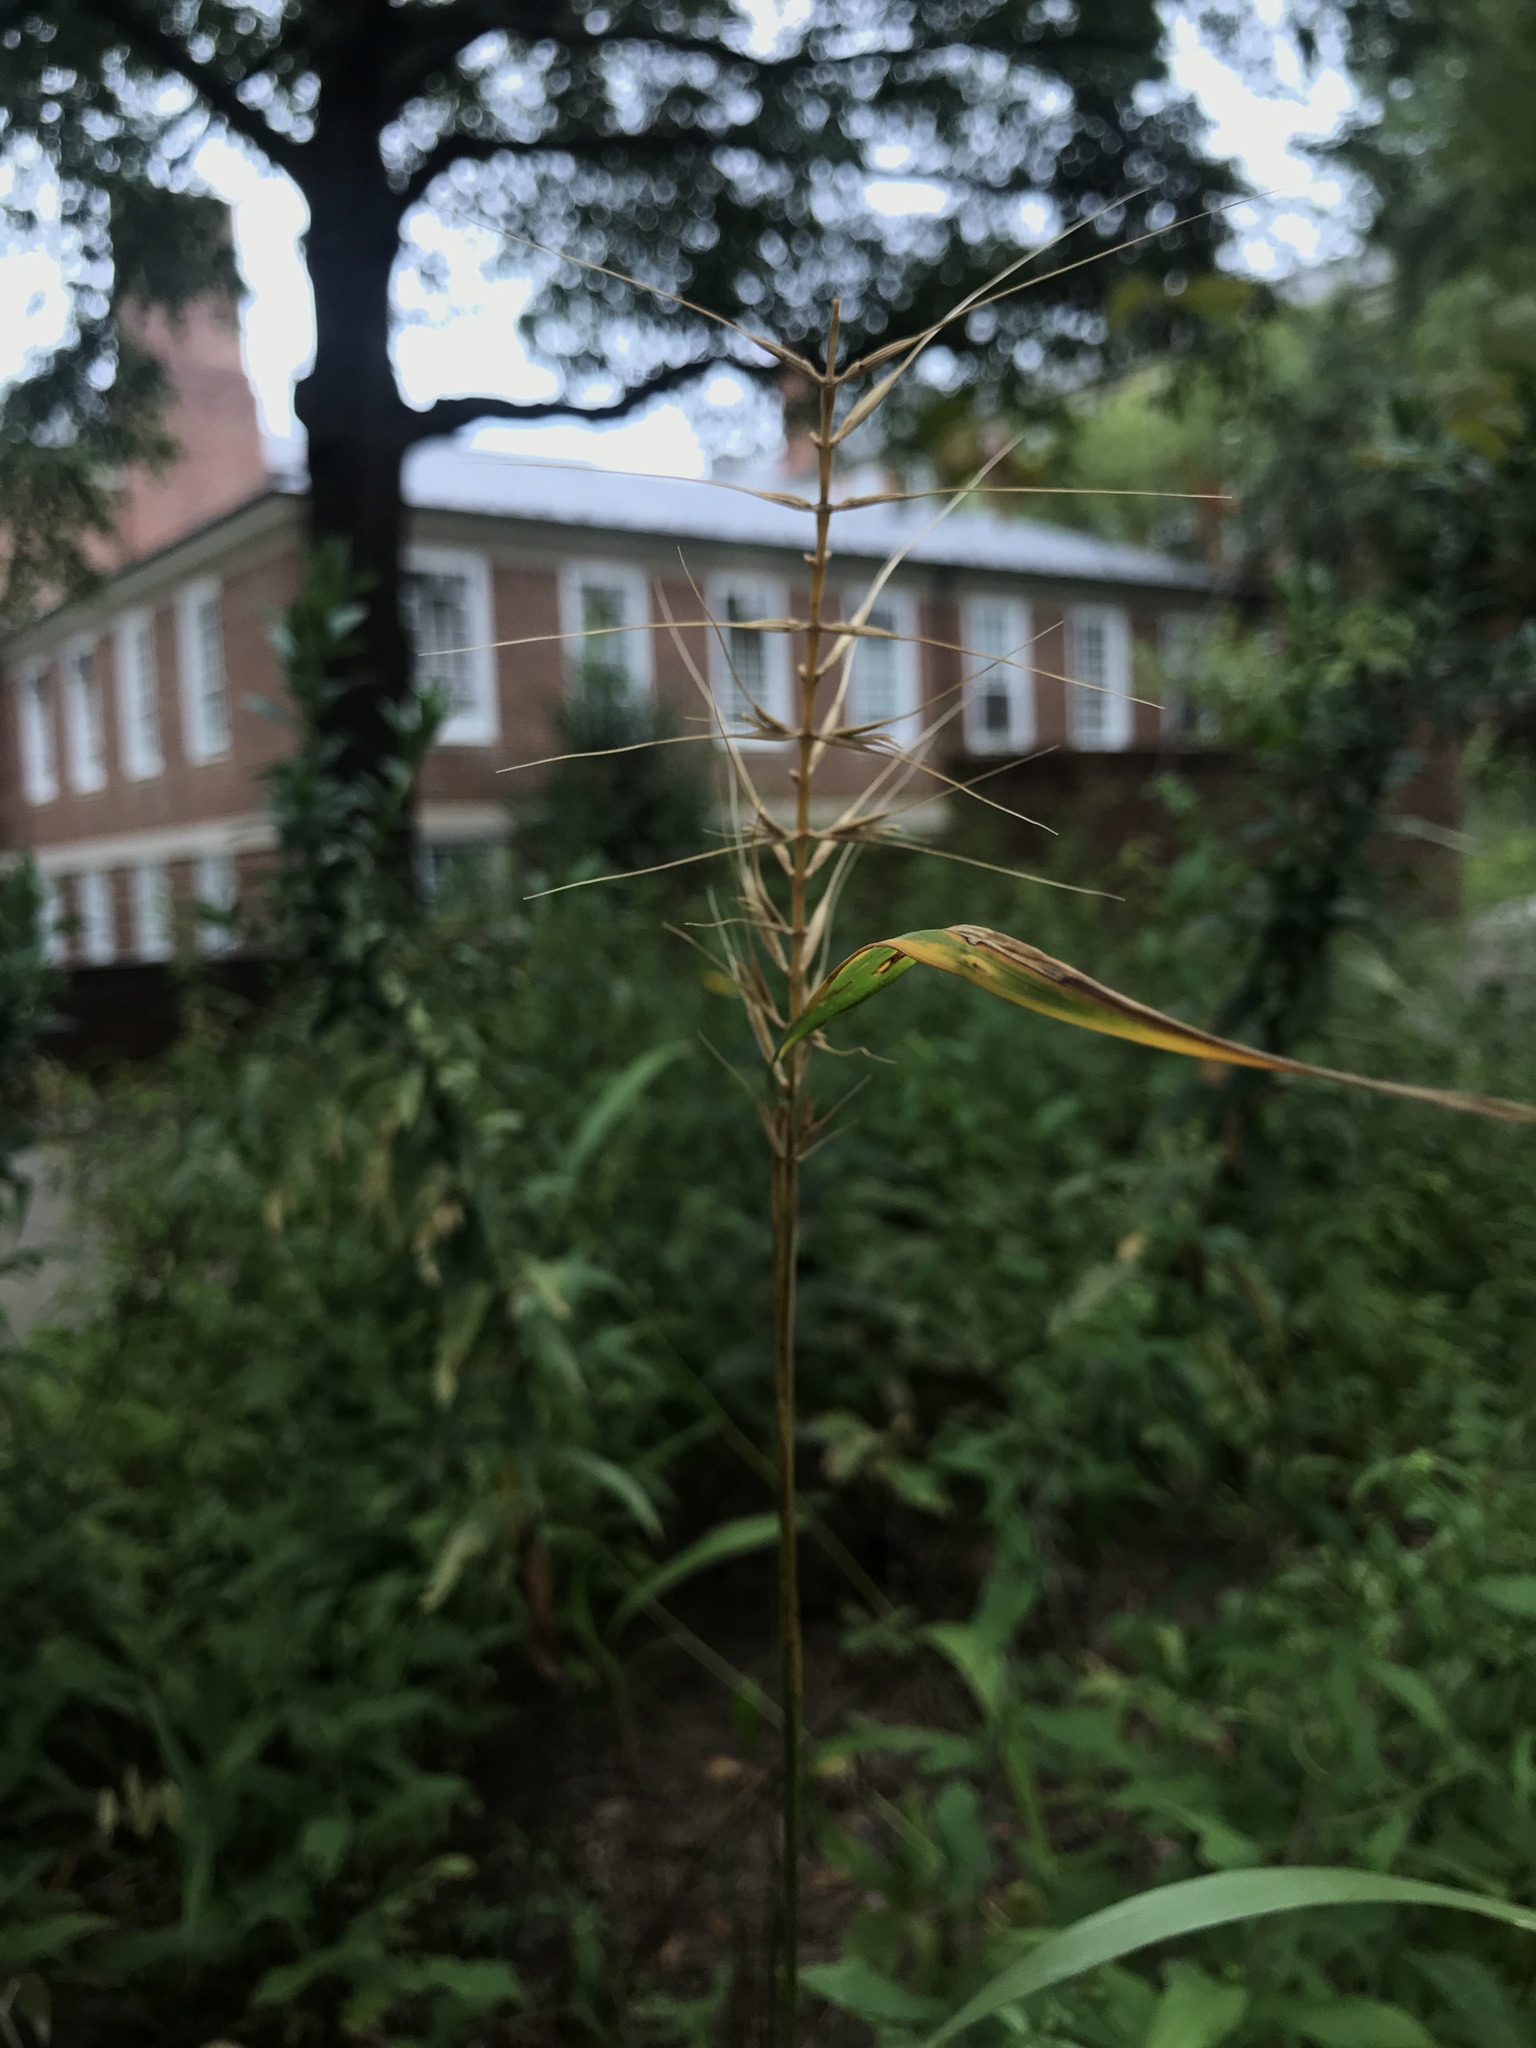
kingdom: Plantae
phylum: Tracheophyta
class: Liliopsida
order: Poales
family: Poaceae
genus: Elymus
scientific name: Elymus hystrix
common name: Bottlebrush grass
